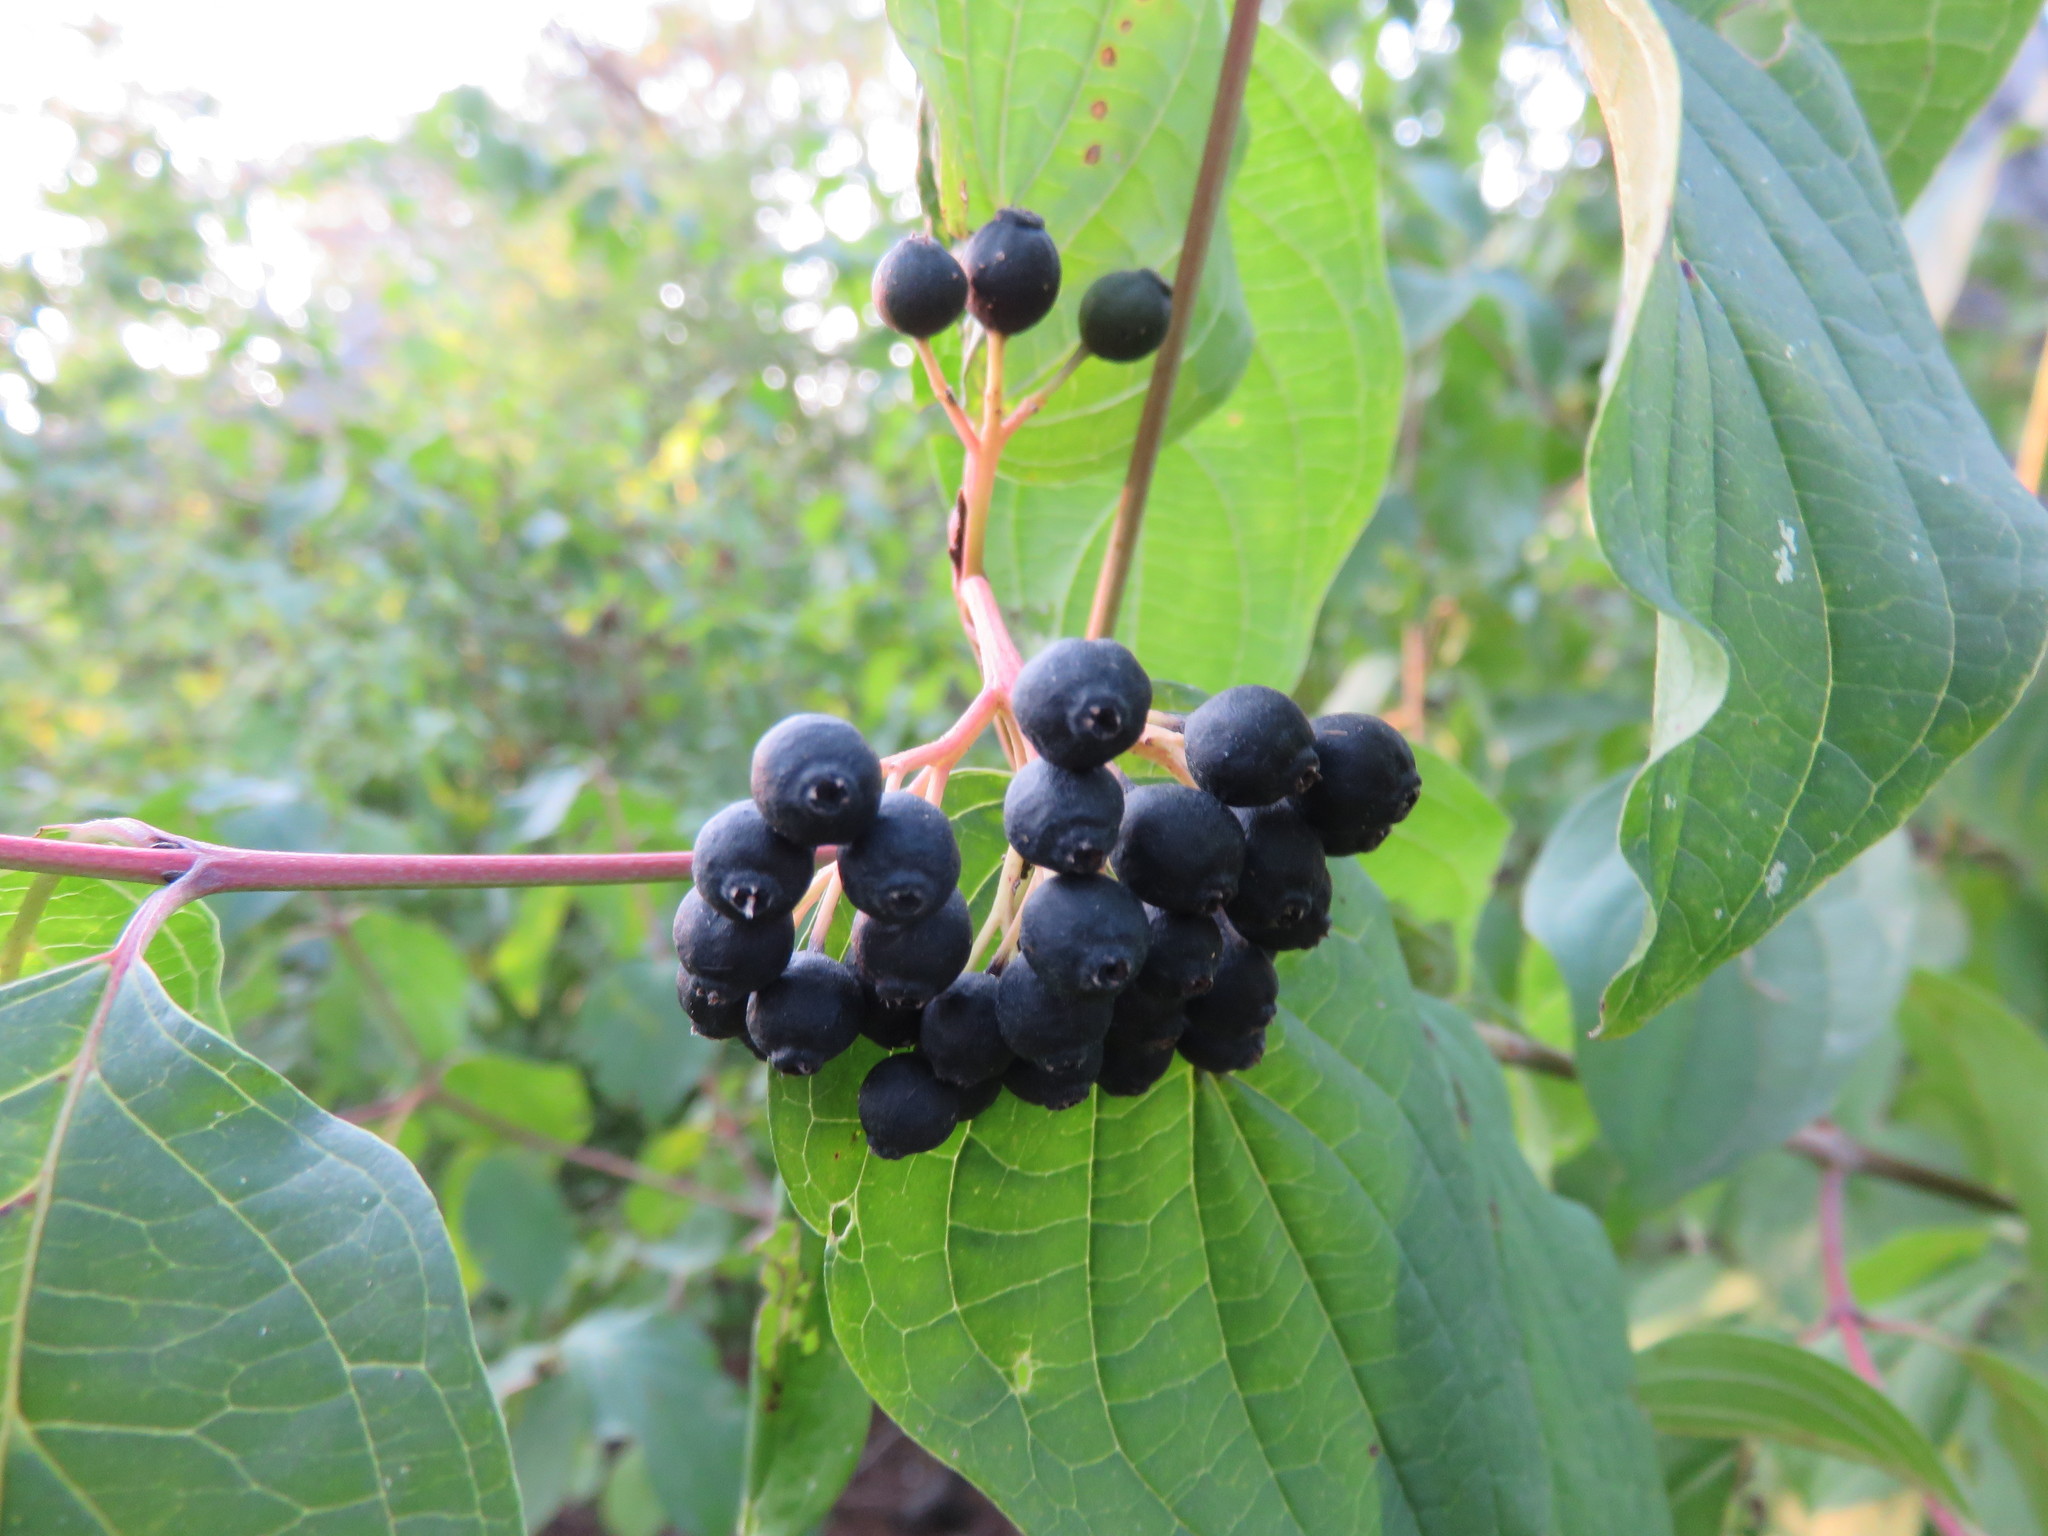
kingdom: Plantae
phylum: Tracheophyta
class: Magnoliopsida
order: Cornales
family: Cornaceae
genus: Cornus
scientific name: Cornus sanguinea
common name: Dogwood
